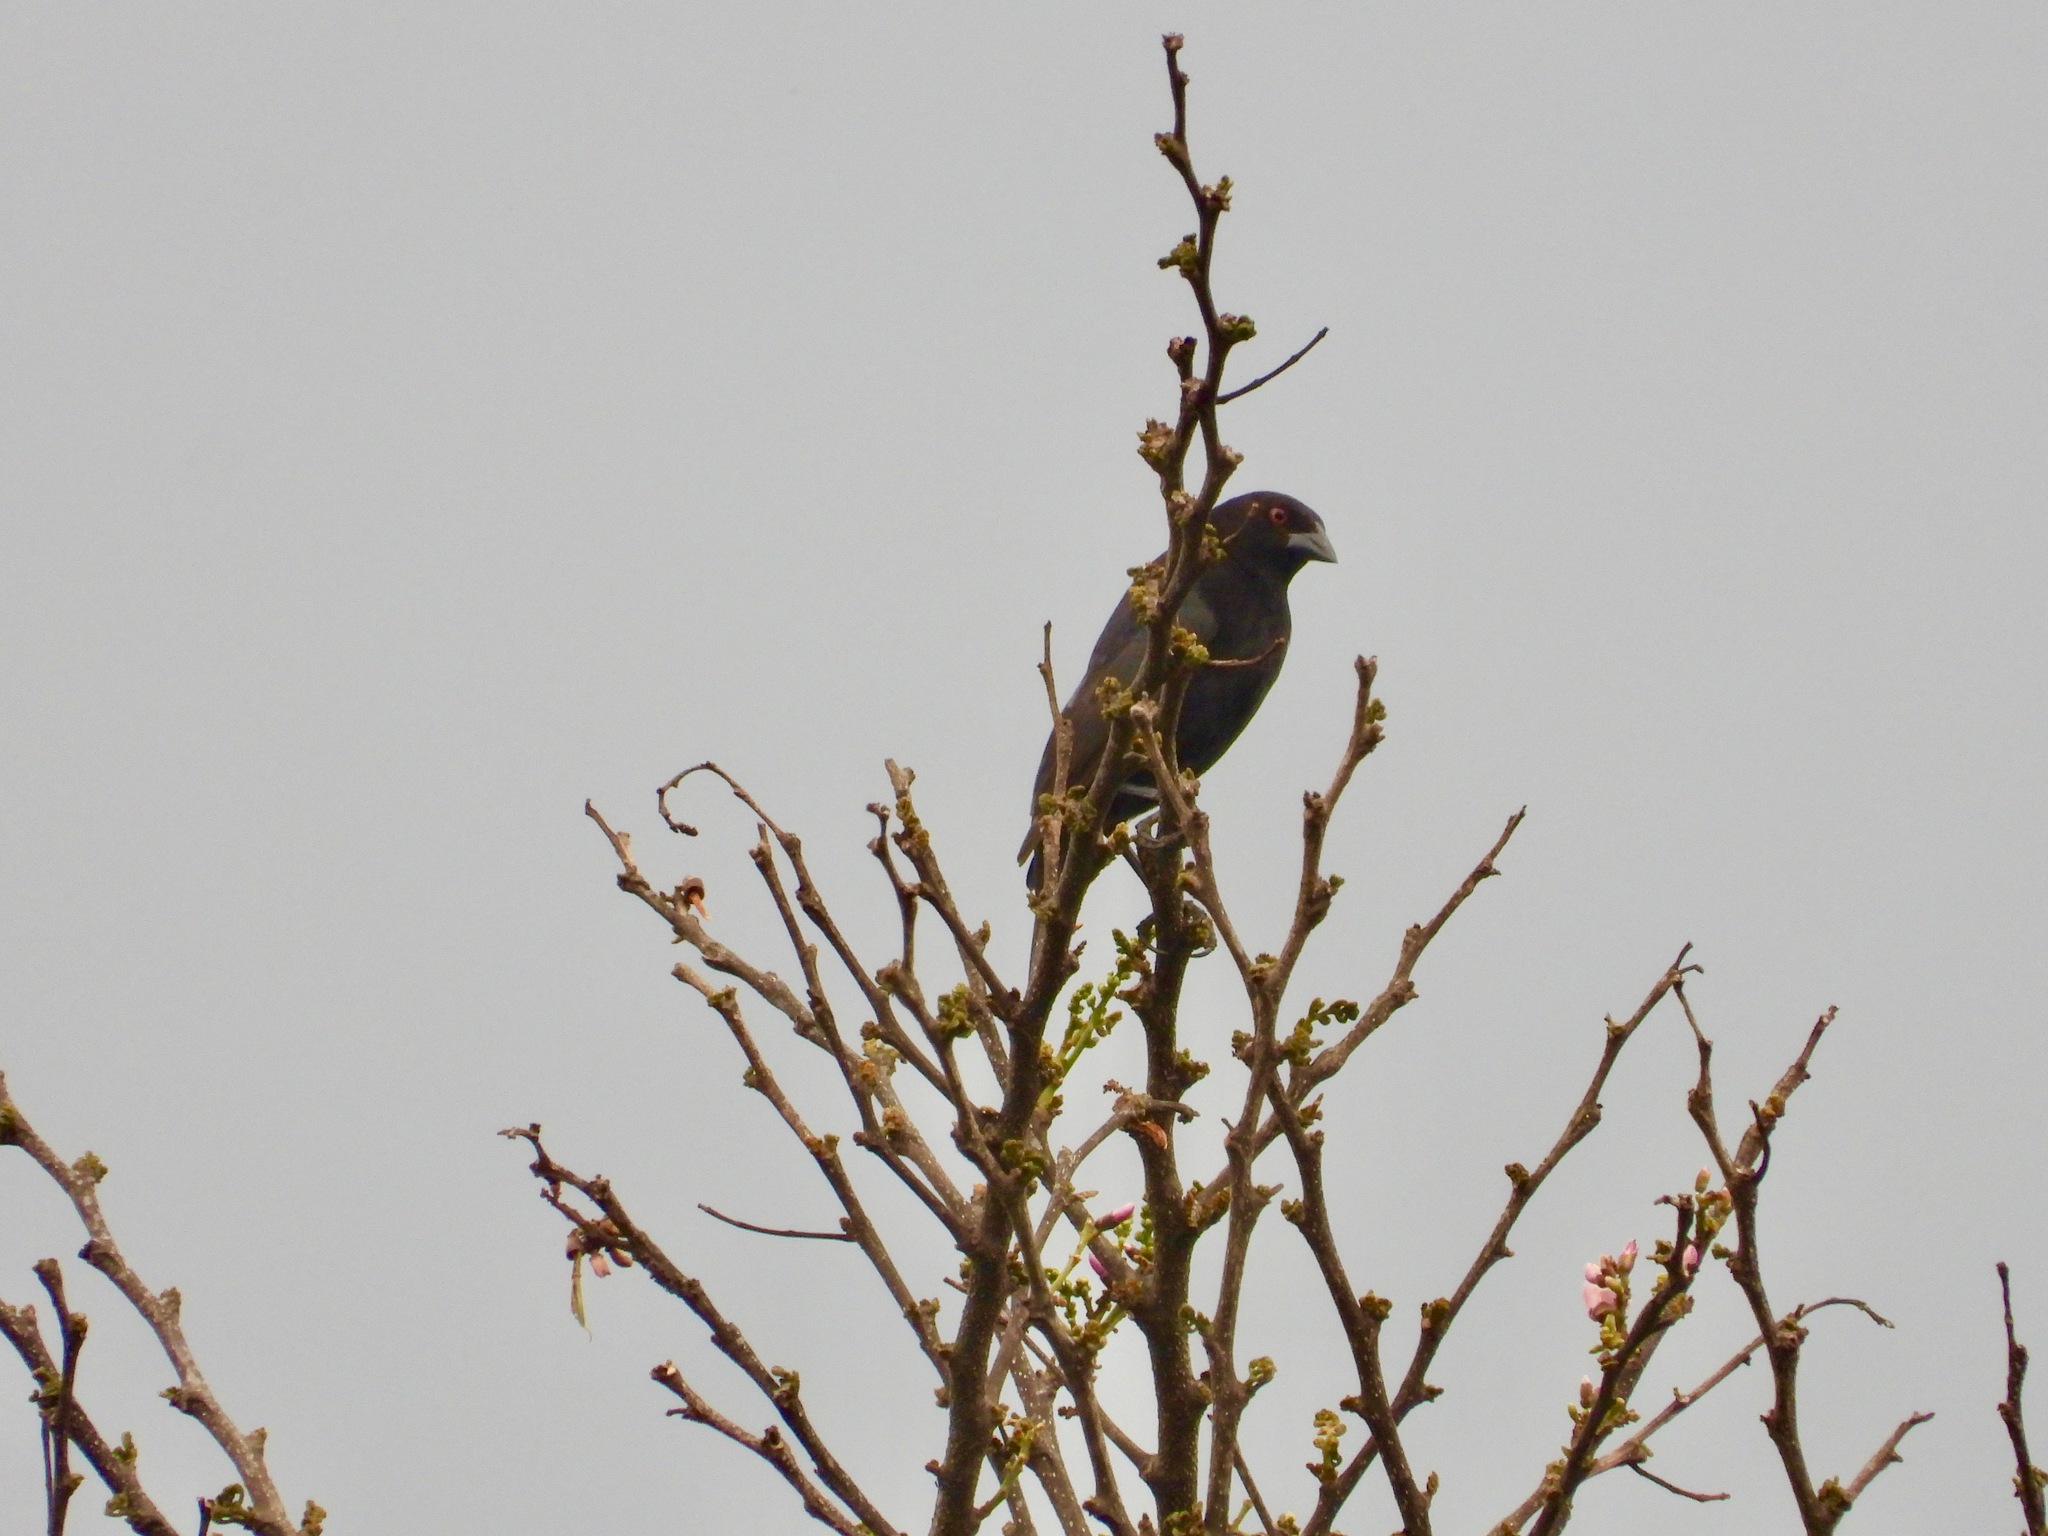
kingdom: Animalia
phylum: Chordata
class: Aves
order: Passeriformes
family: Icteridae
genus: Molothrus
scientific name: Molothrus aeneus
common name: Bronzed cowbird
